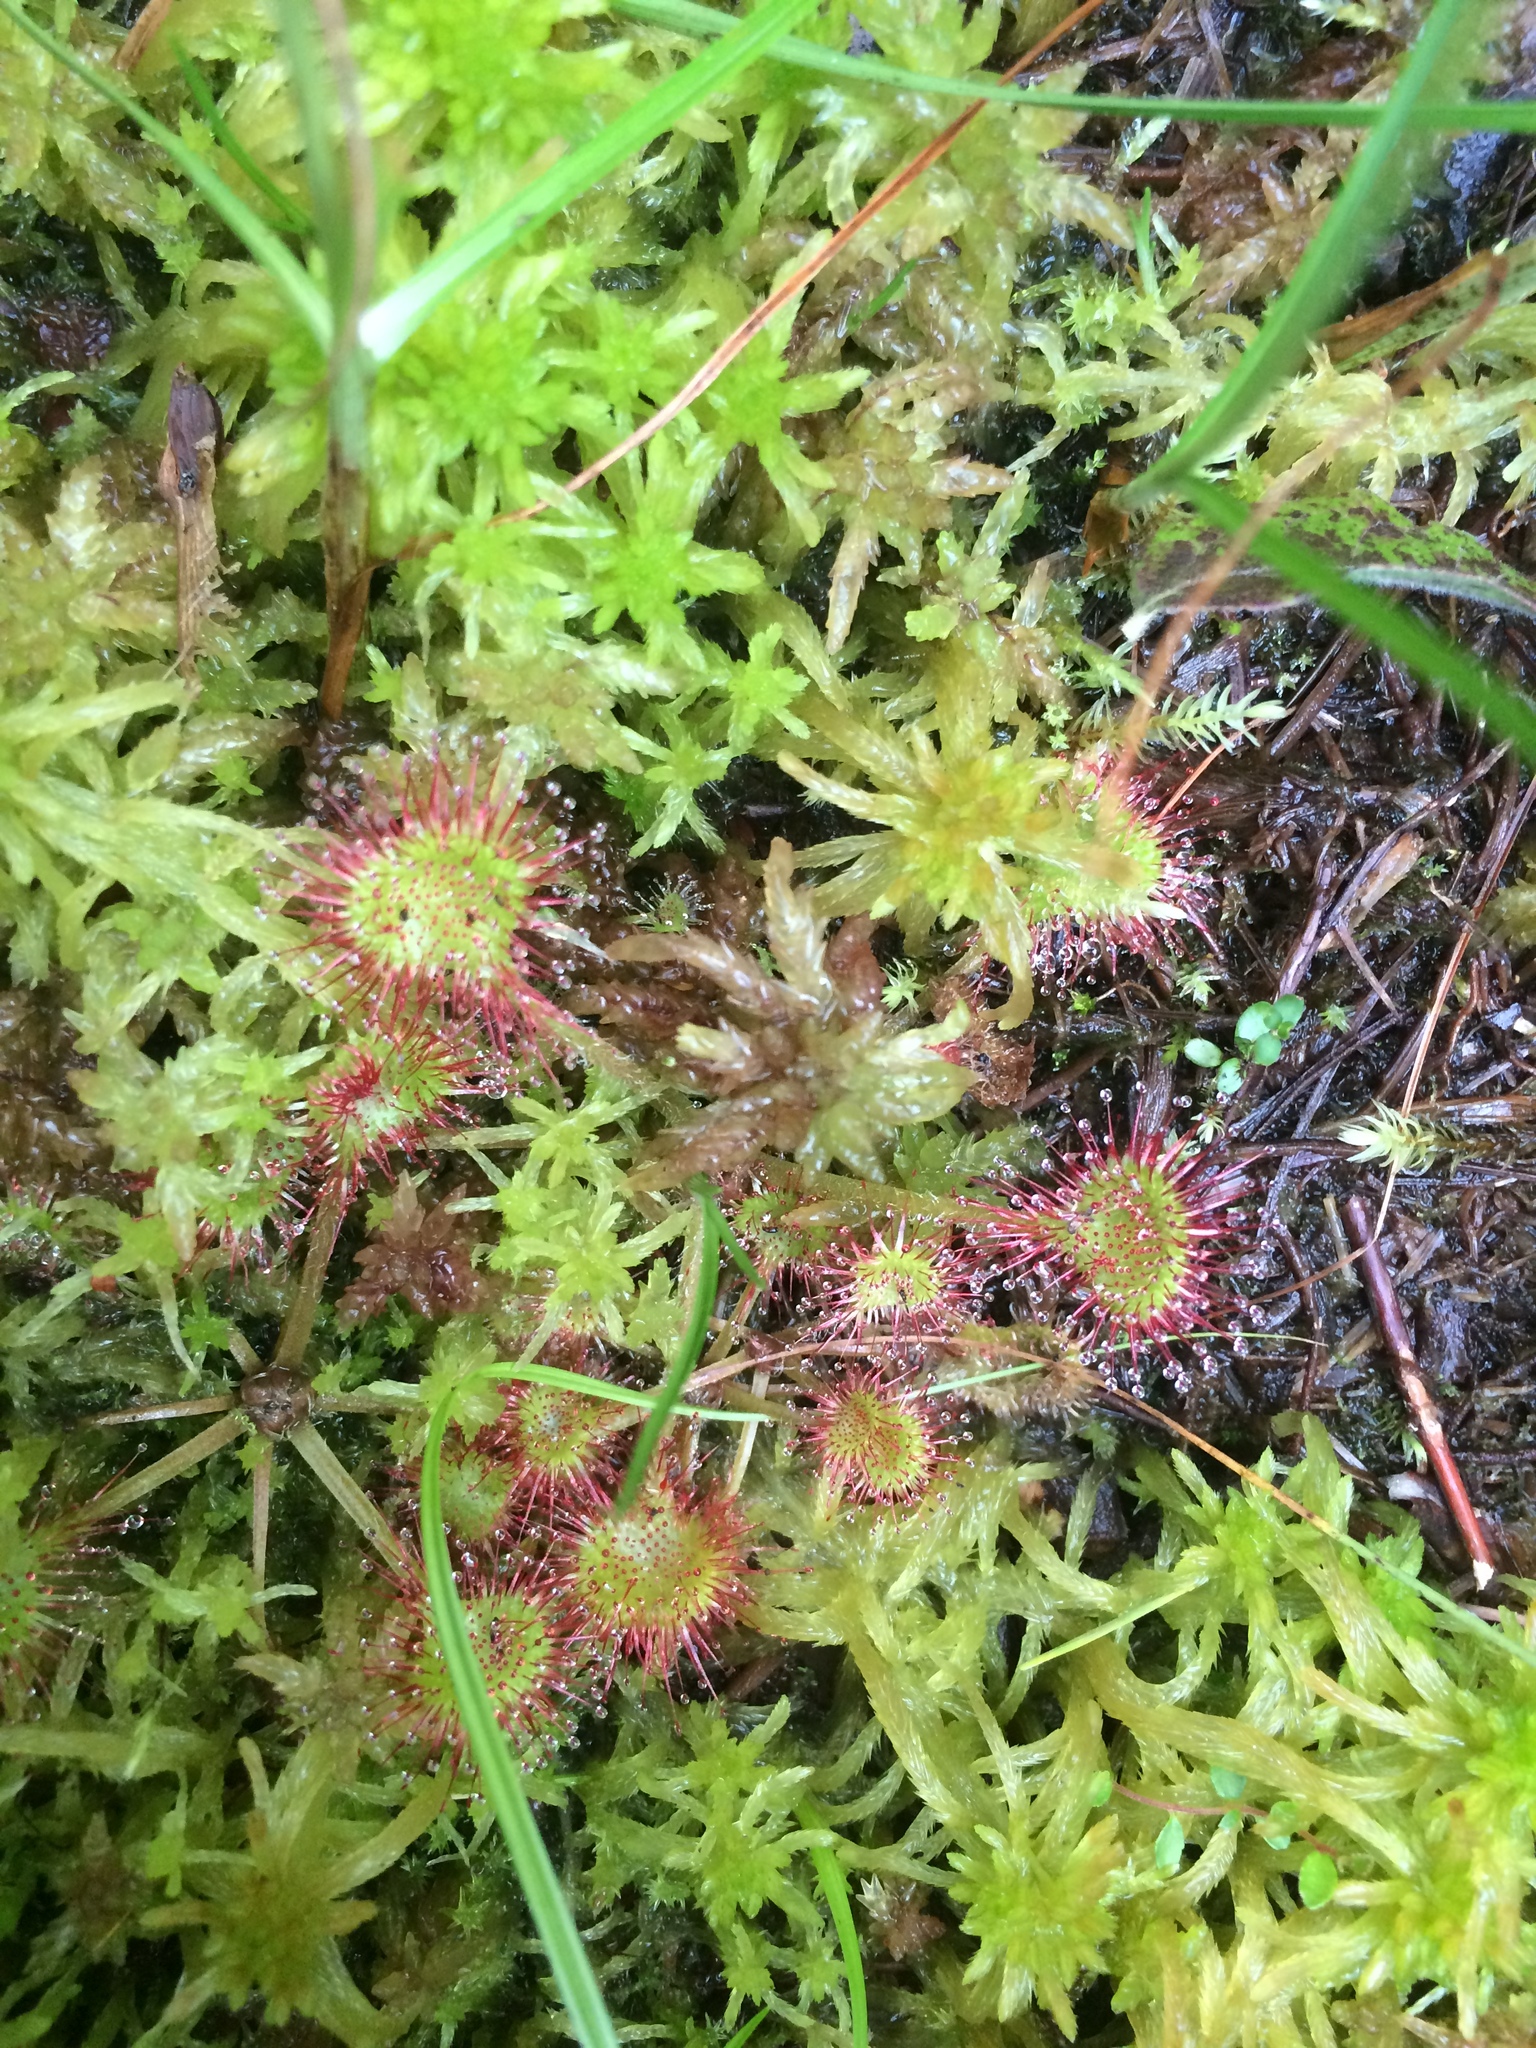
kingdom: Plantae
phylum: Tracheophyta
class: Magnoliopsida
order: Caryophyllales
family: Droseraceae
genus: Drosera
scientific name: Drosera rotundifolia
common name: Round-leaved sundew
